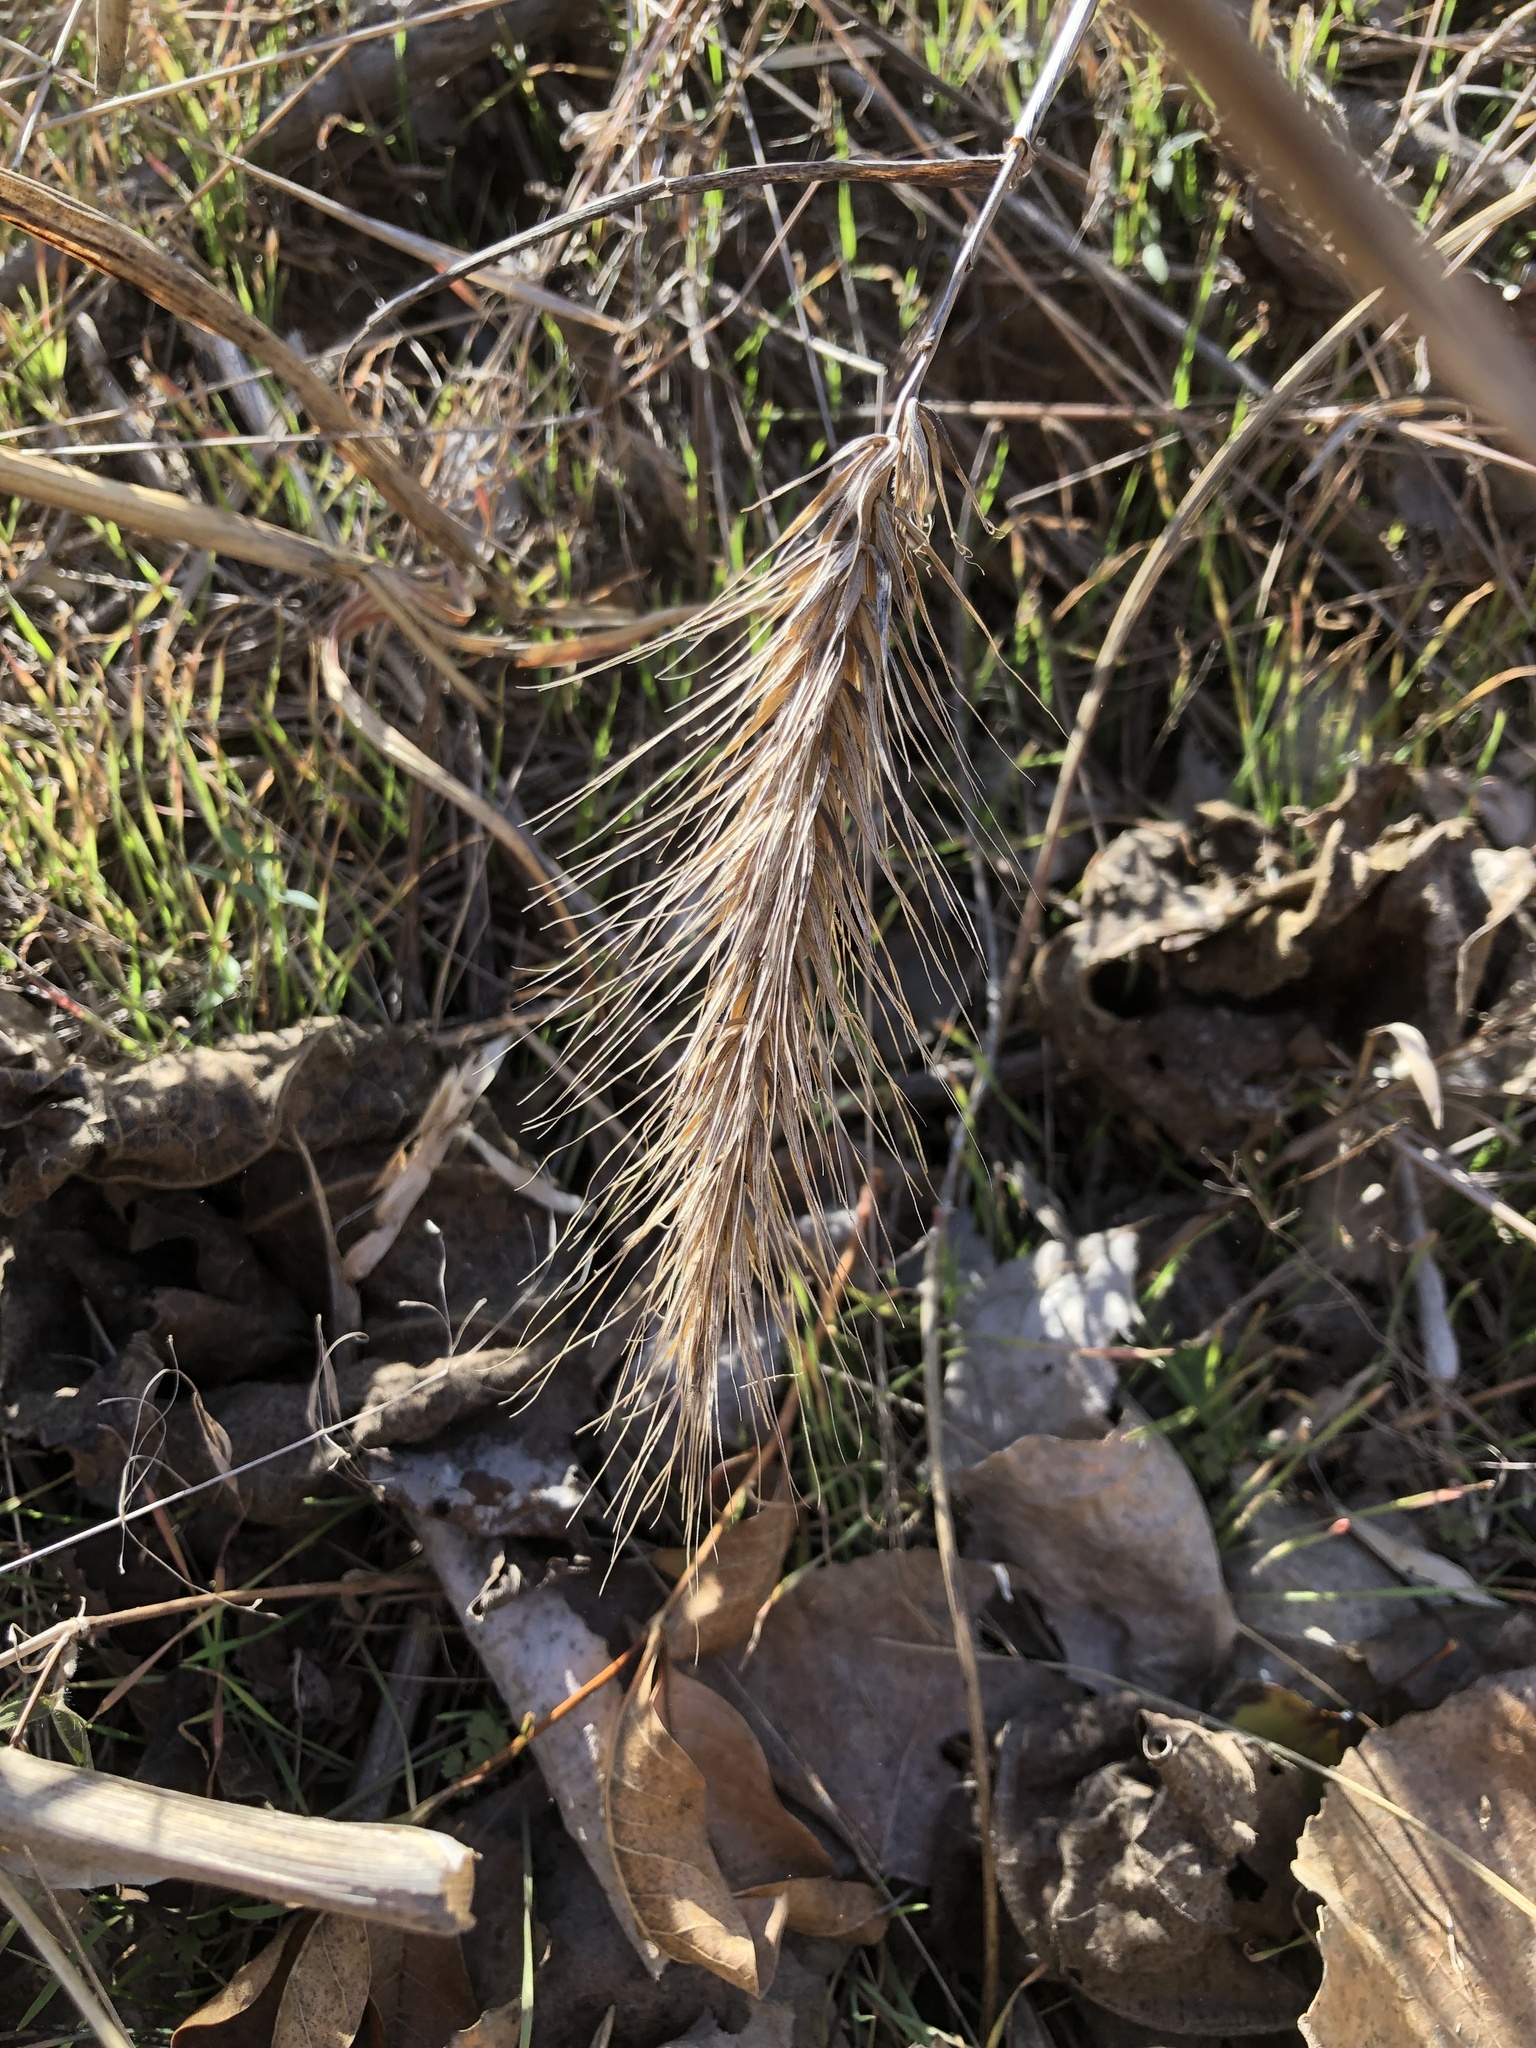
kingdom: Plantae
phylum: Tracheophyta
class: Liliopsida
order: Poales
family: Poaceae
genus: Elymus
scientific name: Elymus virginicus
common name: Common eastern wildrye
